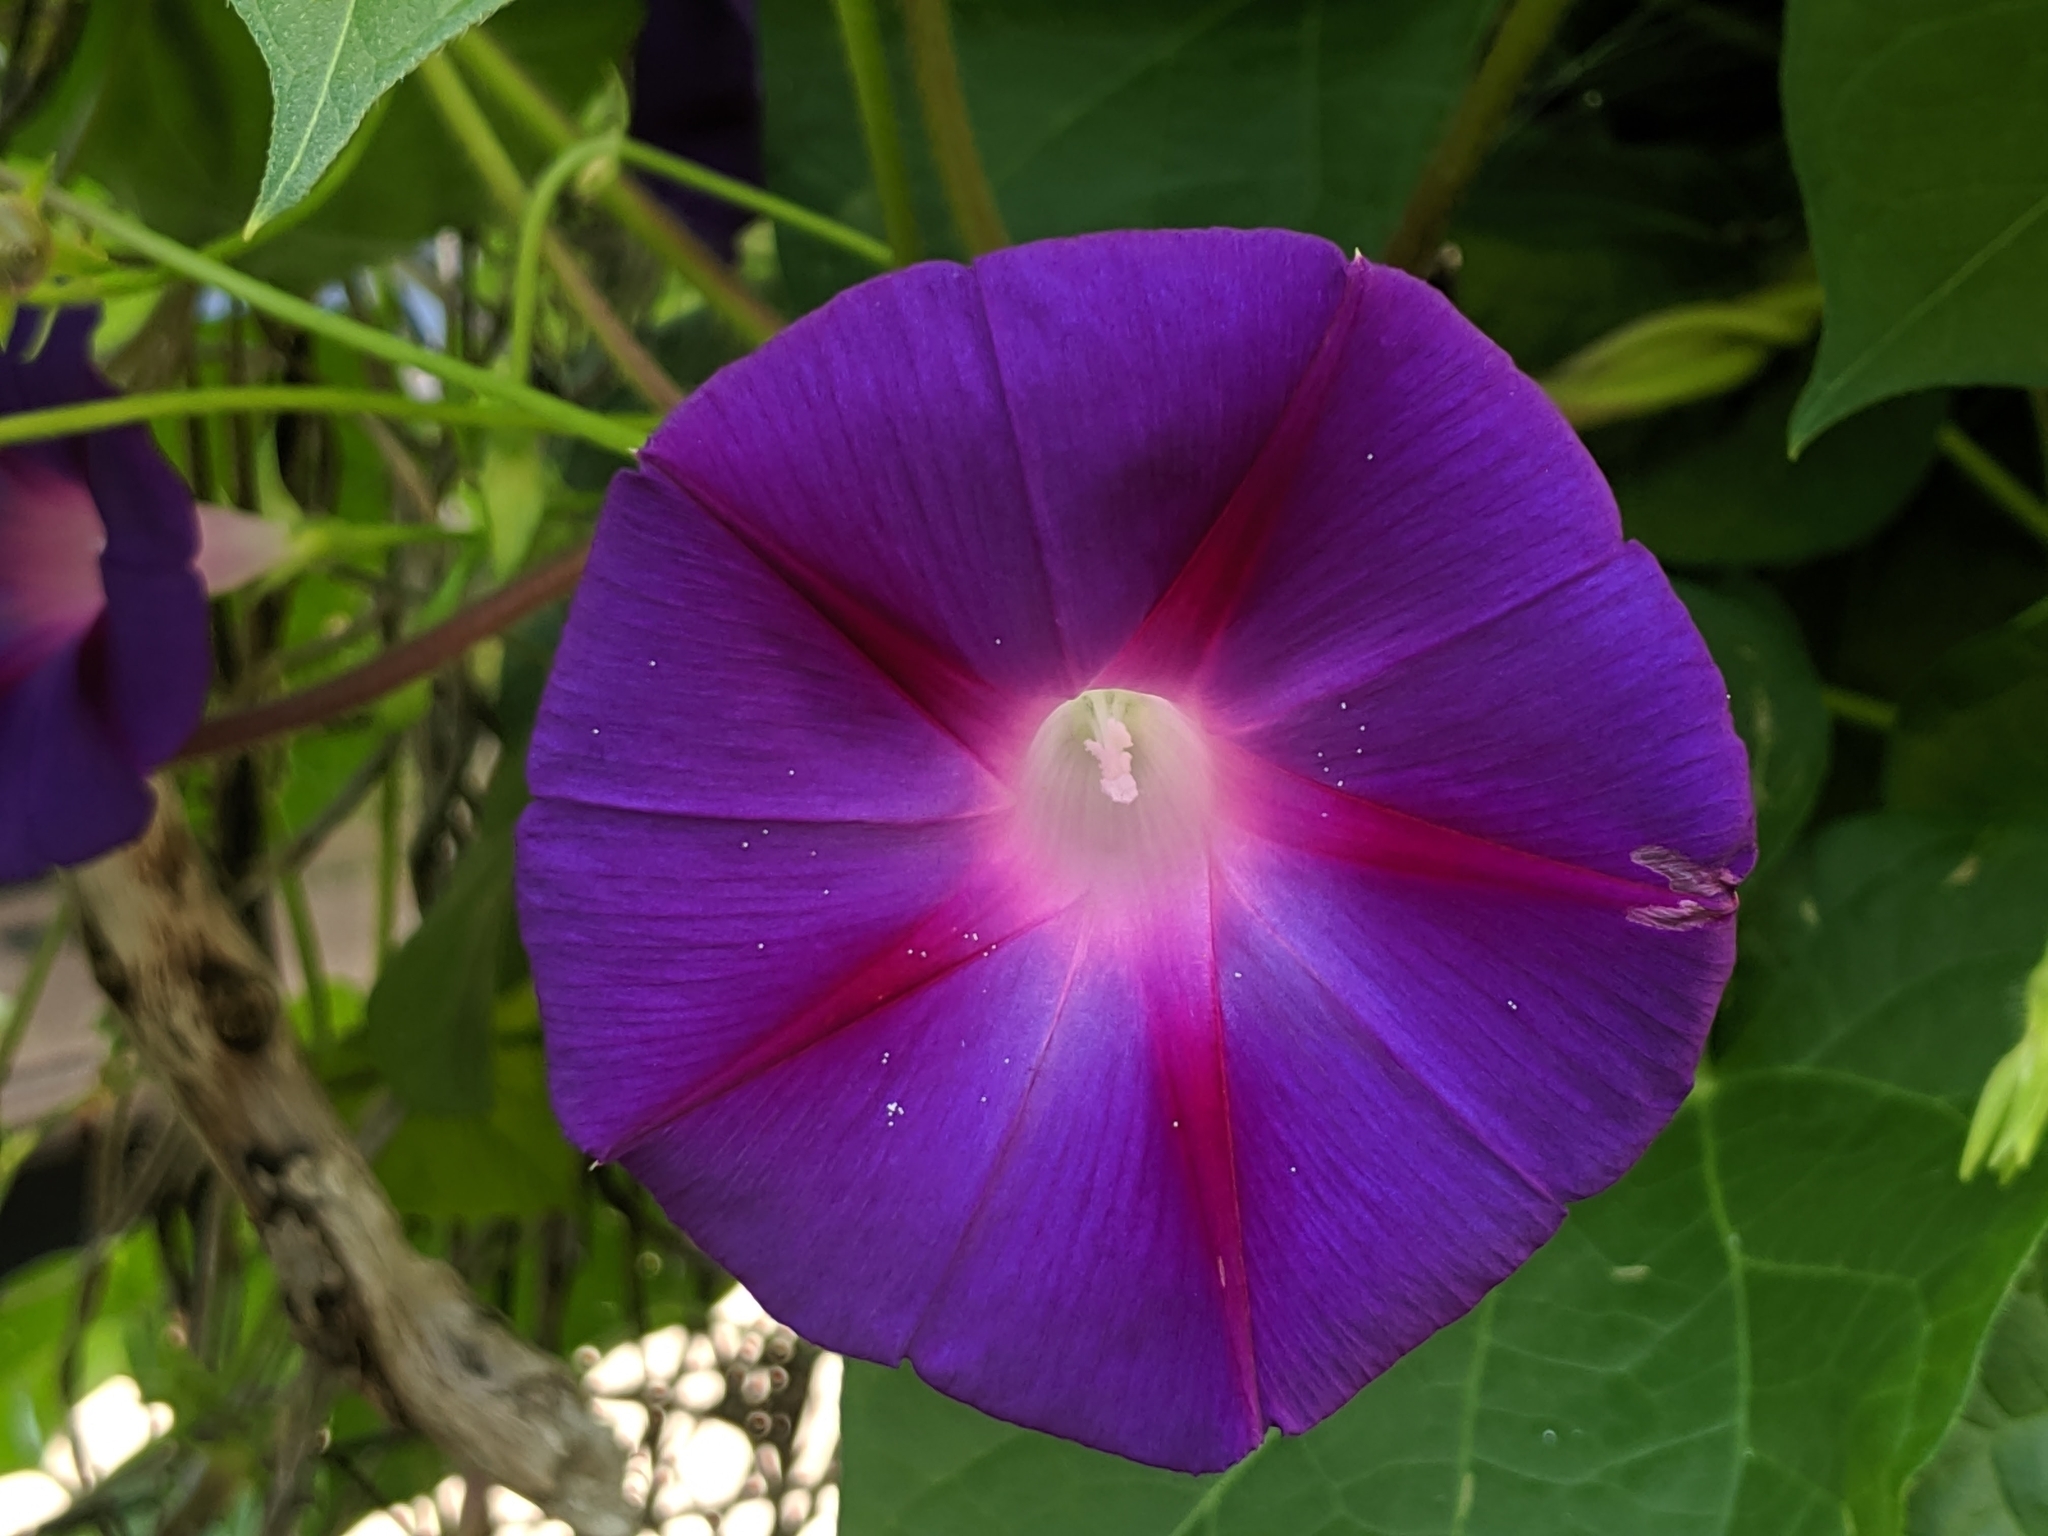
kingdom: Plantae
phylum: Tracheophyta
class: Magnoliopsida
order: Solanales
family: Convolvulaceae
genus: Ipomoea
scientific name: Ipomoea purpurea
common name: Common morning-glory
